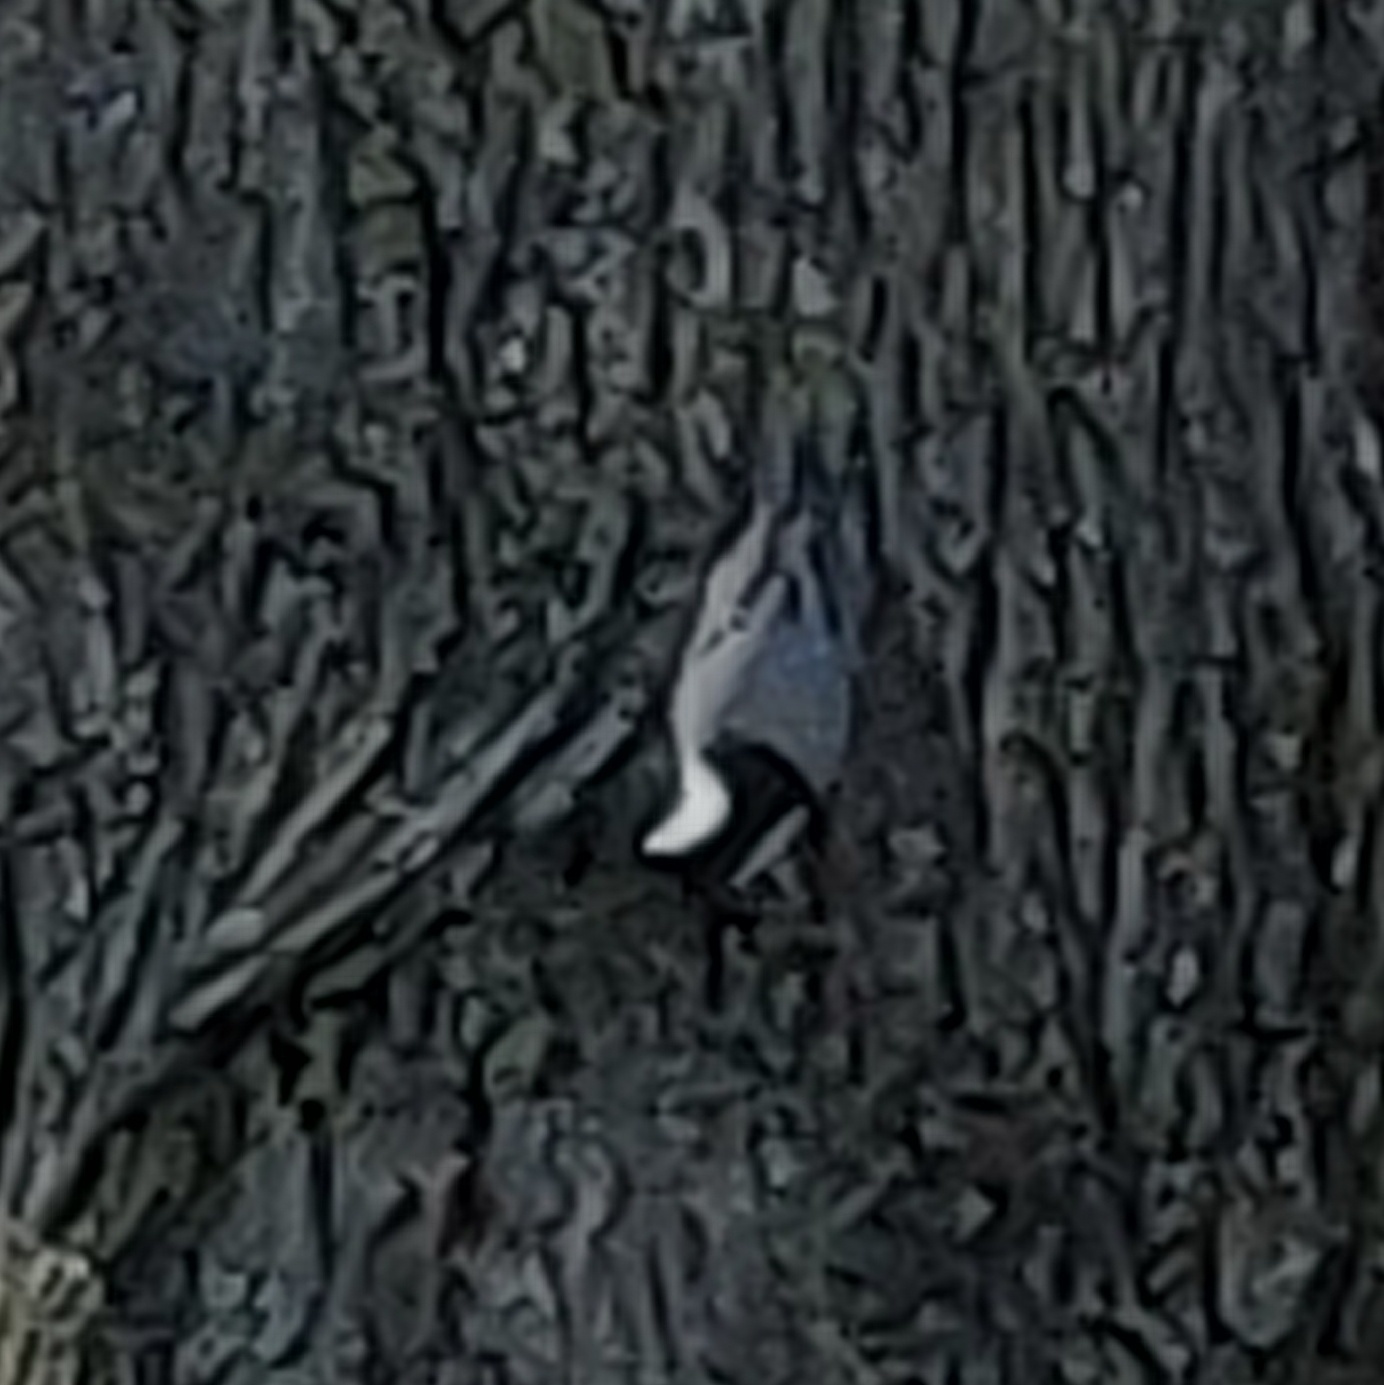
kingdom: Animalia
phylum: Chordata
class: Aves
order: Passeriformes
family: Sittidae
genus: Sitta
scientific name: Sitta carolinensis
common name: White-breasted nuthatch
